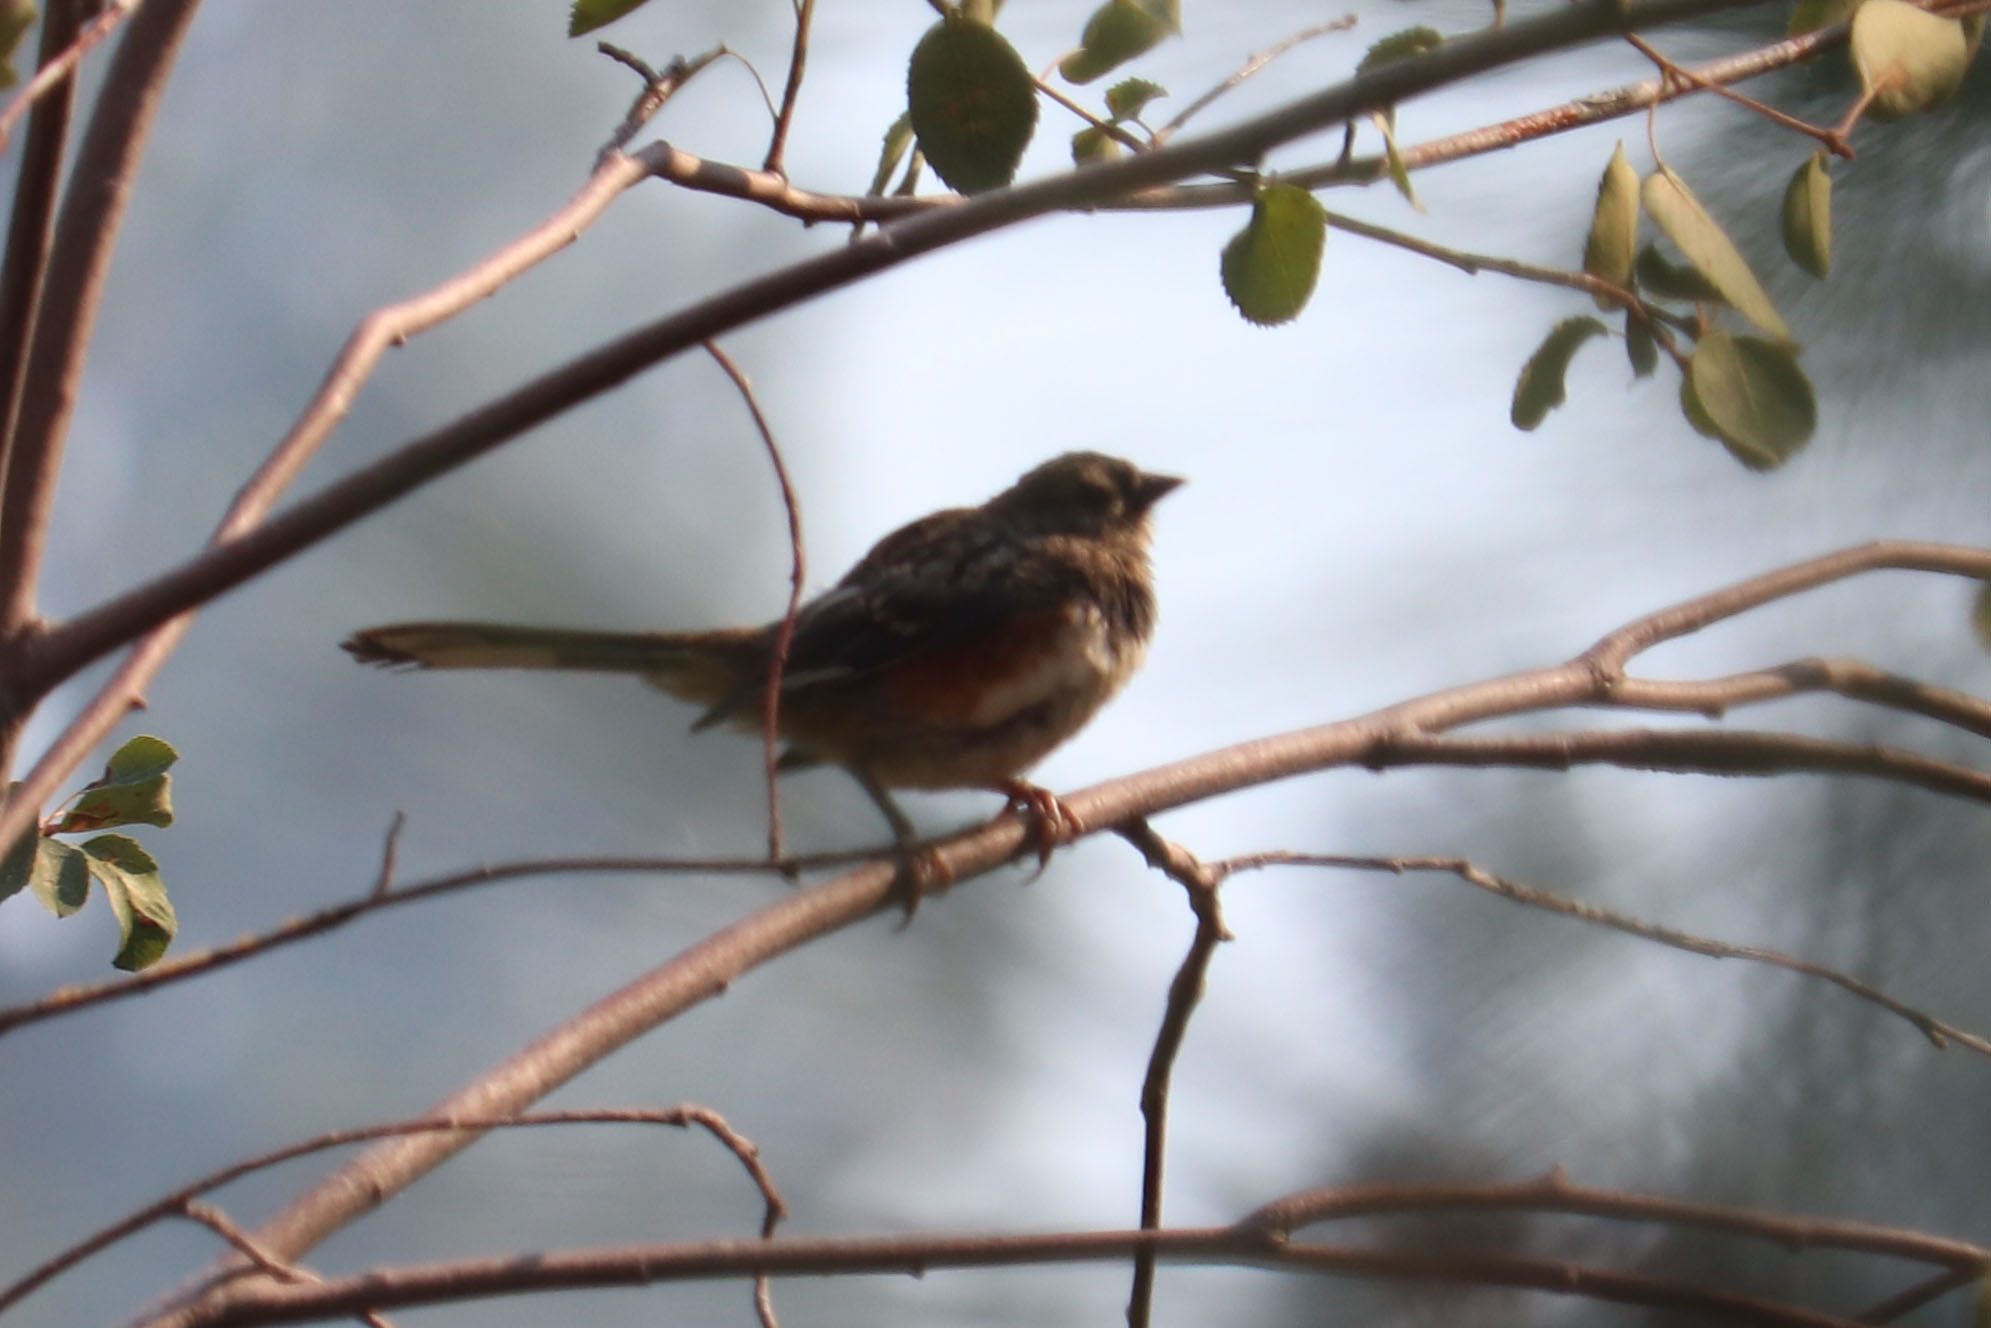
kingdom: Animalia
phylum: Chordata
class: Aves
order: Passeriformes
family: Passerellidae
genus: Pipilo
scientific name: Pipilo maculatus
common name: Spotted towhee
